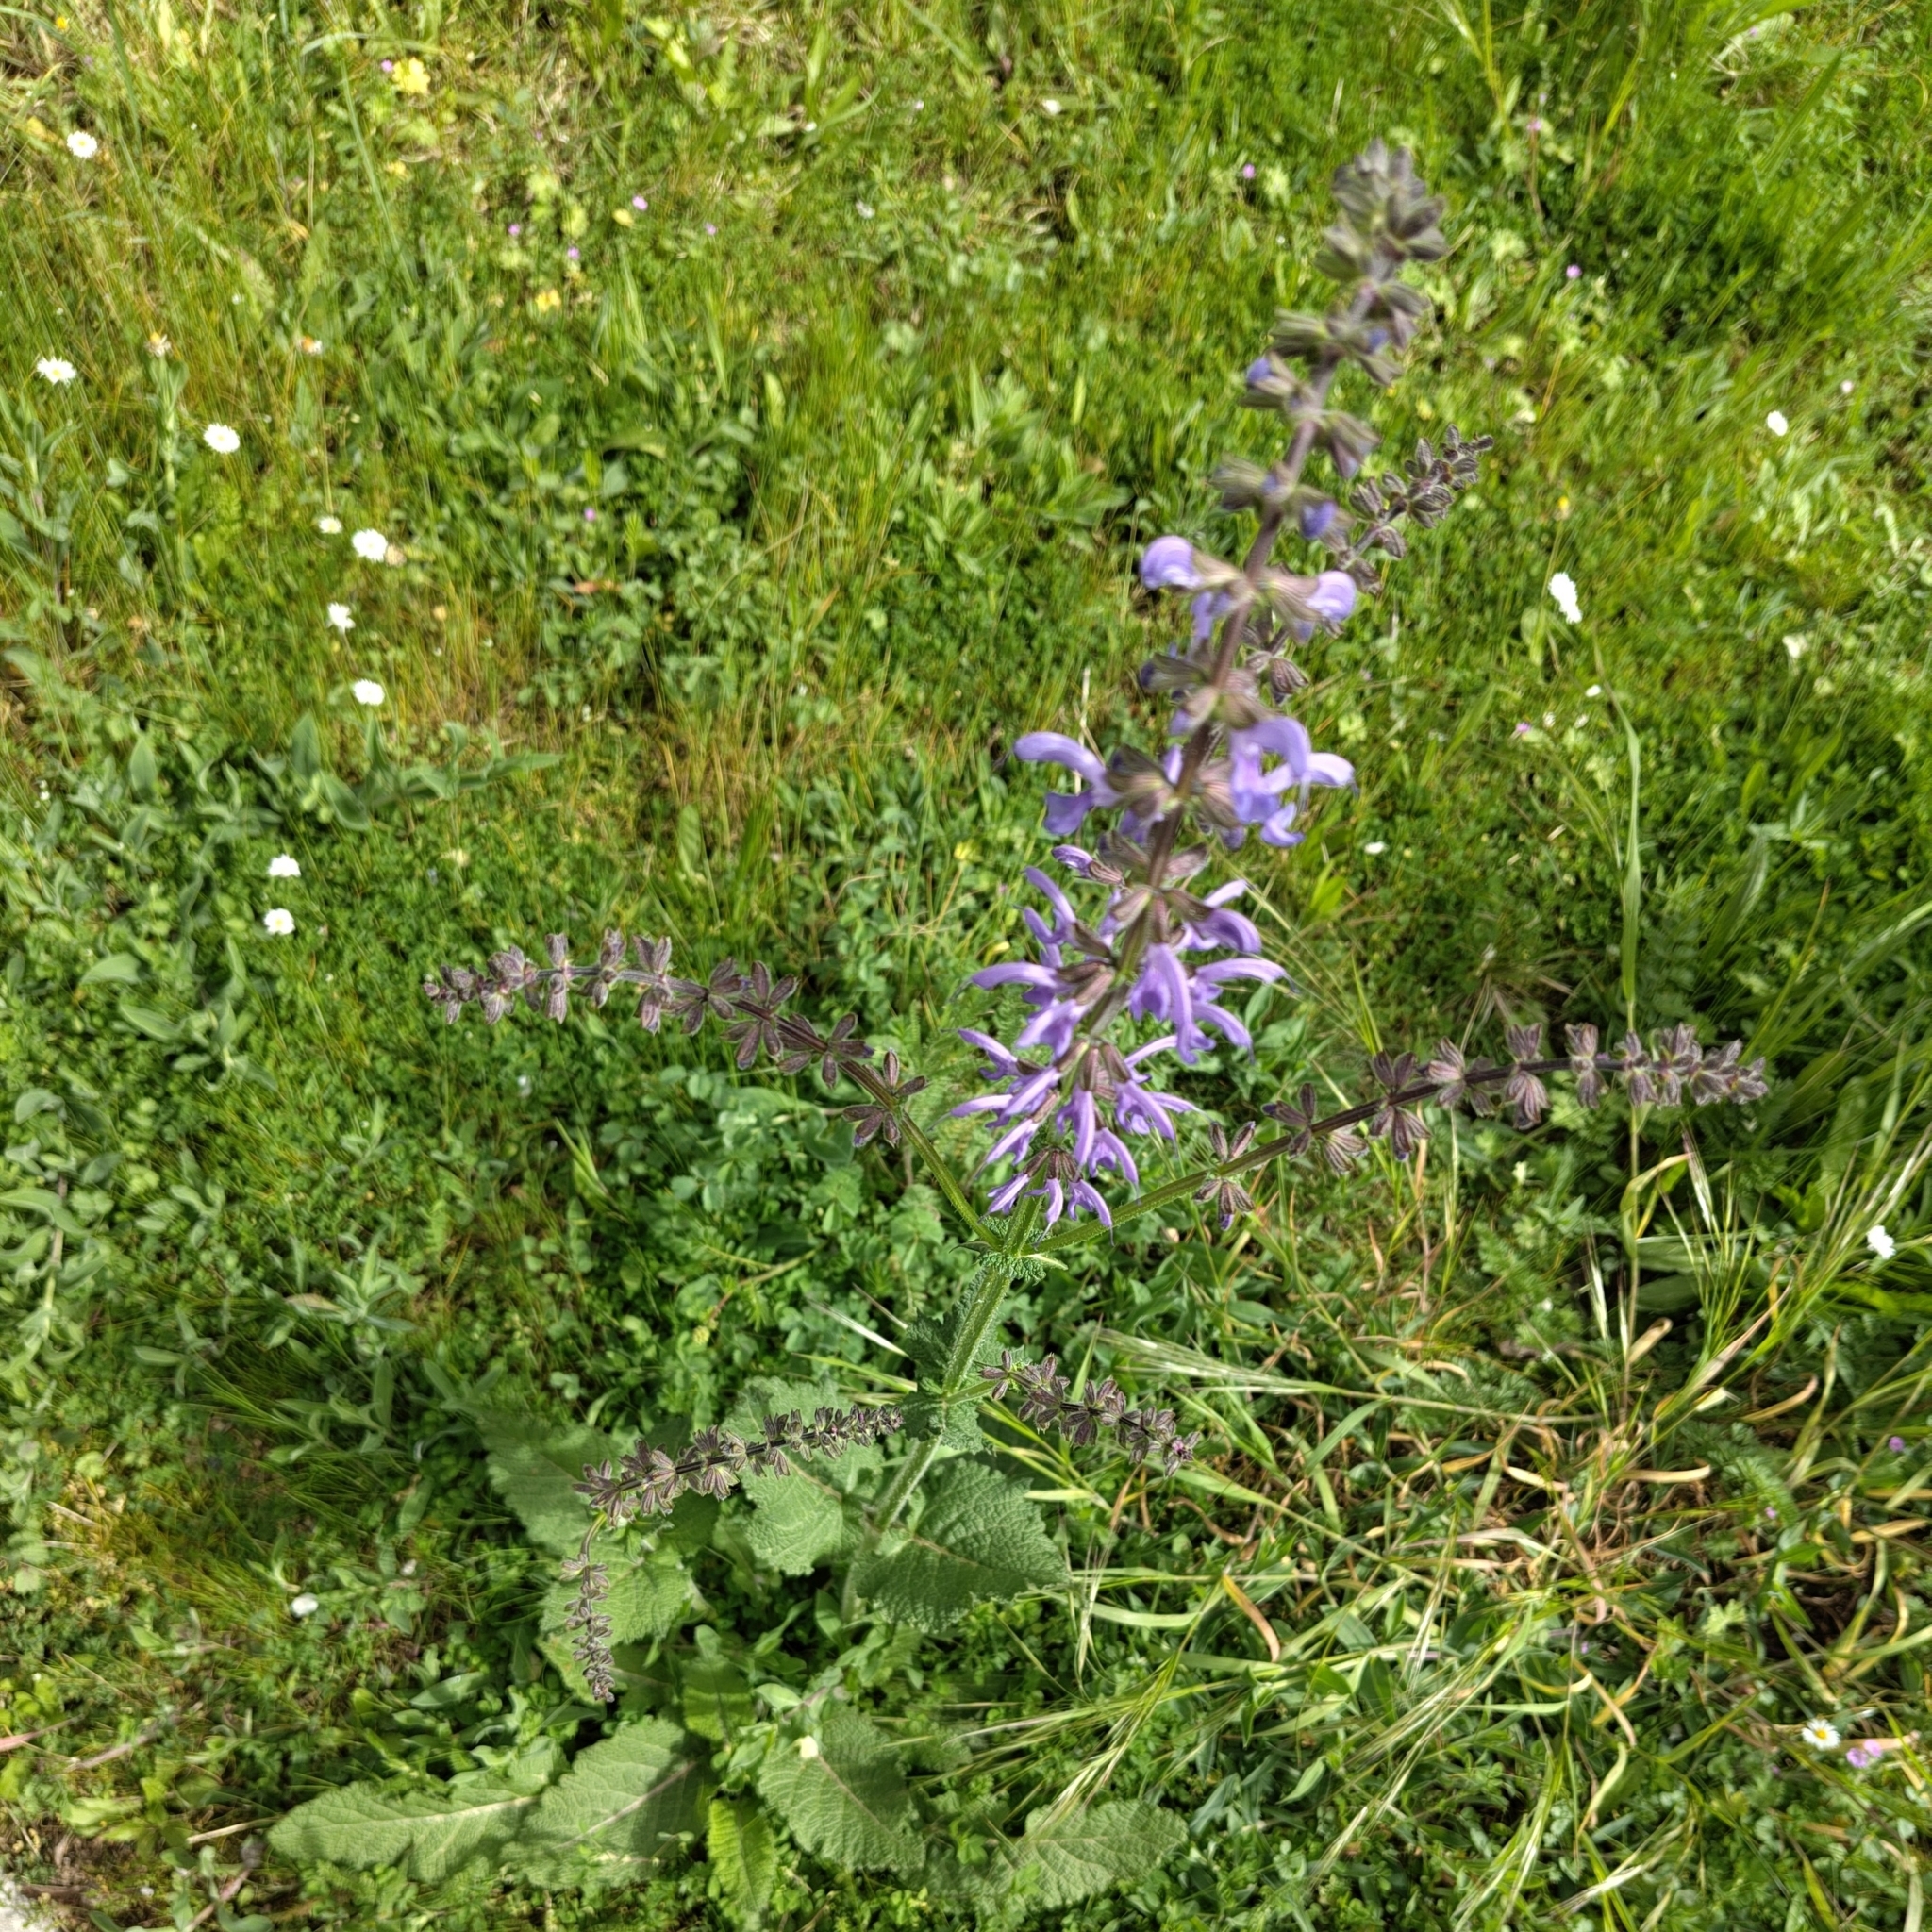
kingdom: Plantae
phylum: Tracheophyta
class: Magnoliopsida
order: Lamiales
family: Lamiaceae
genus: Salvia
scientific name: Salvia pratensis
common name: Meadow sage
